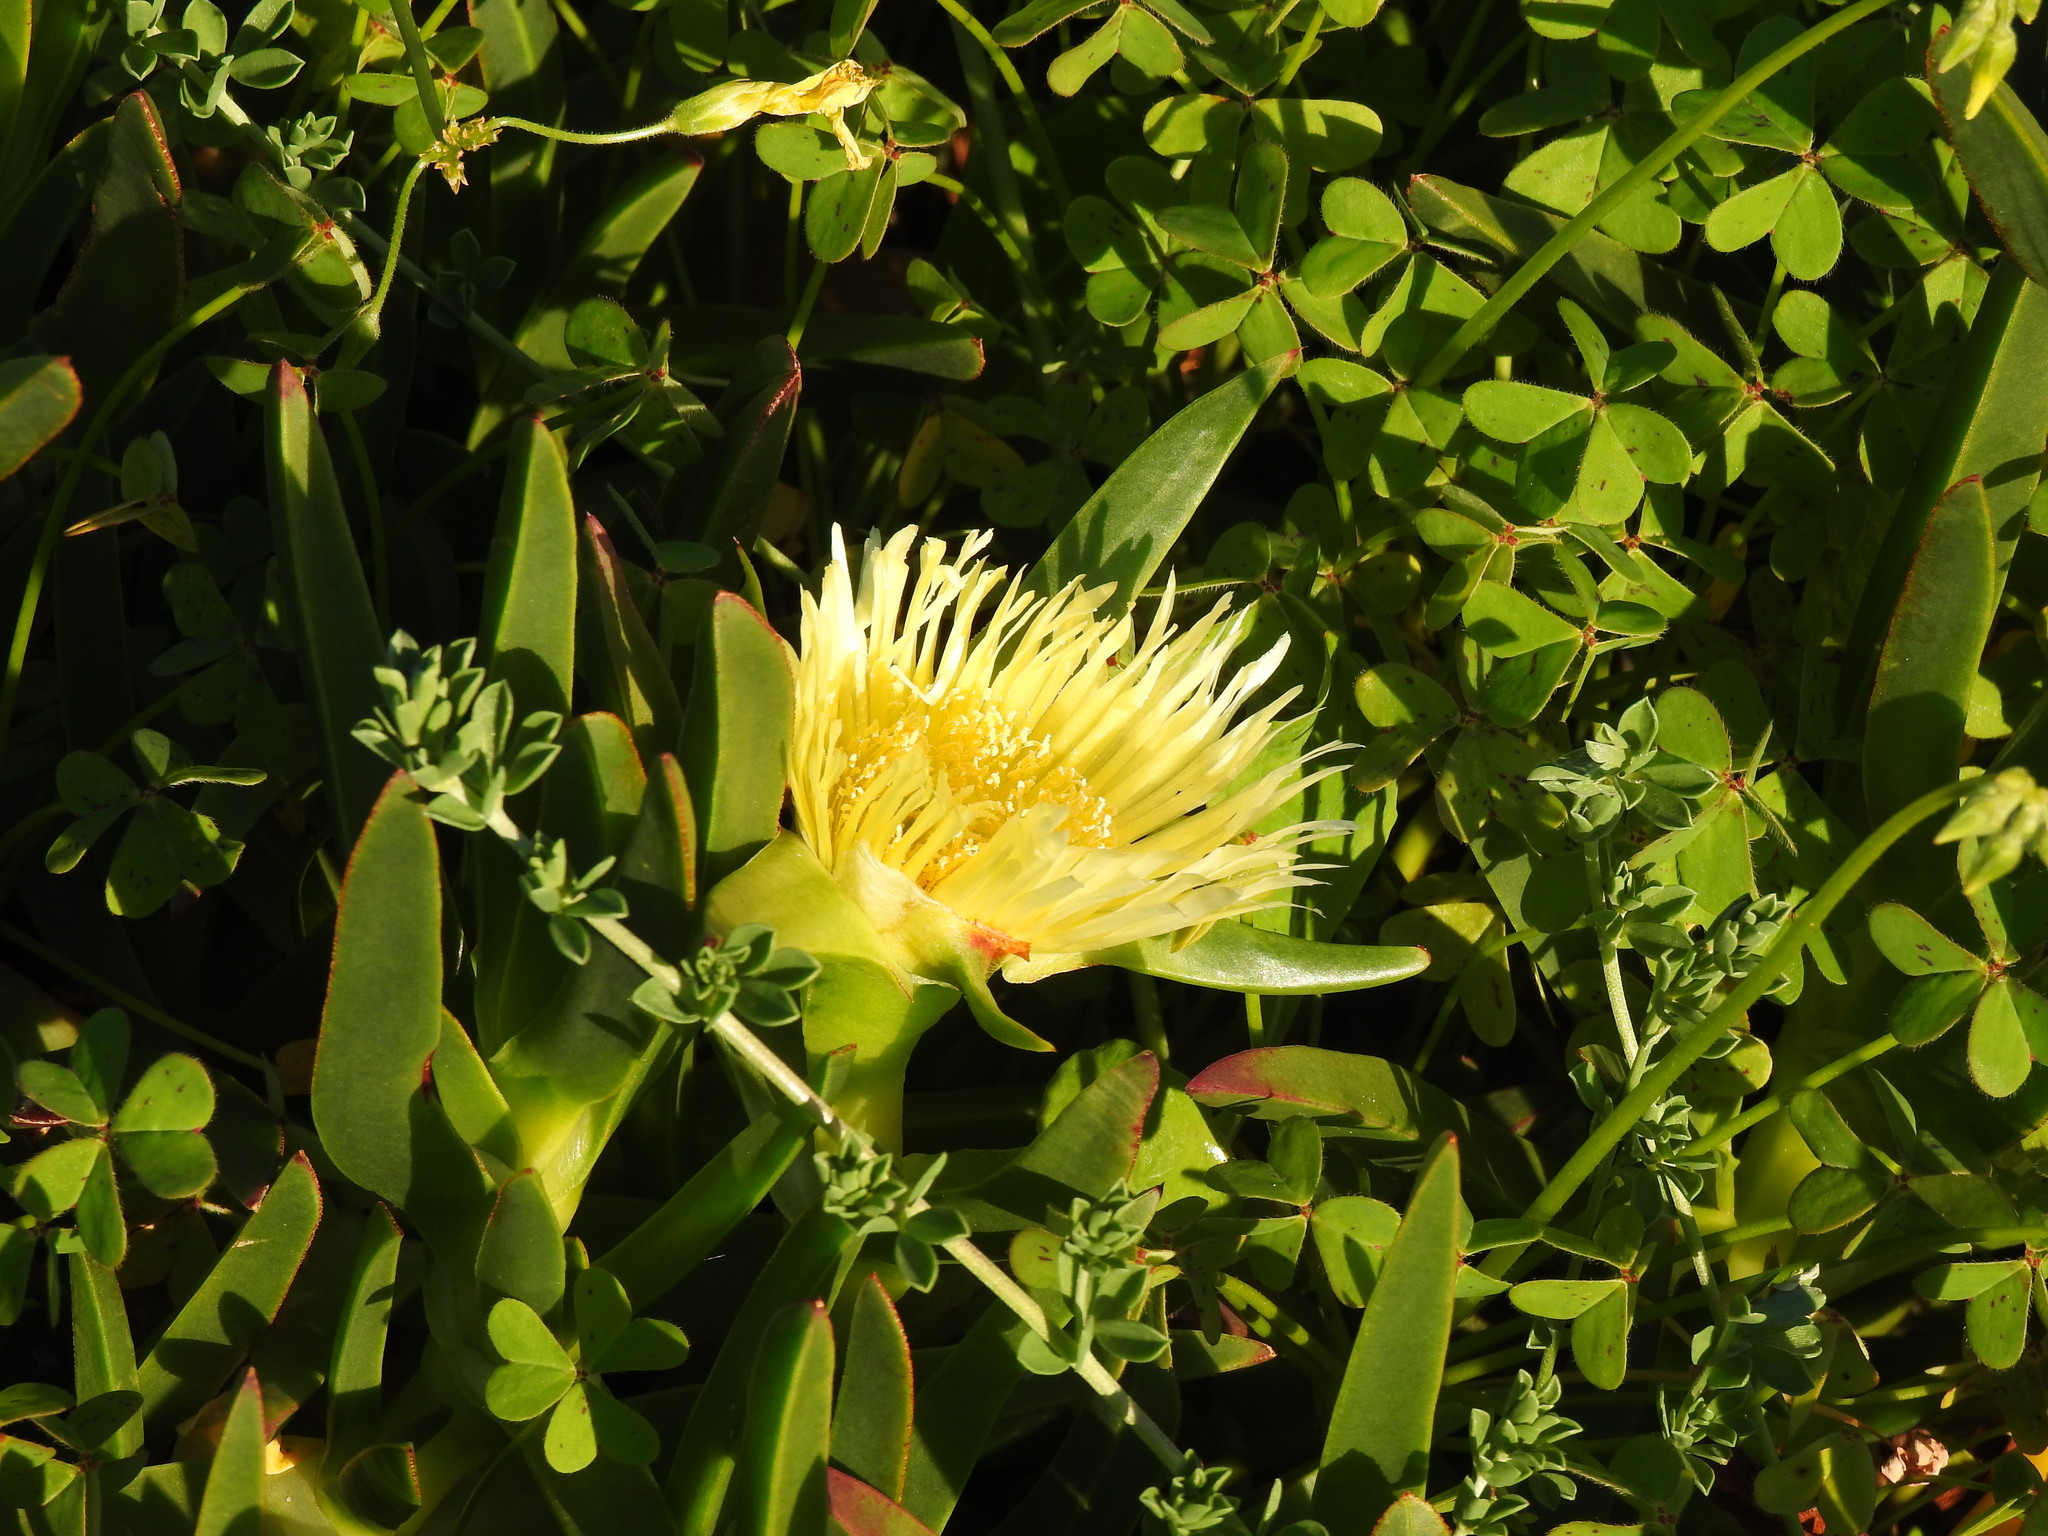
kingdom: Plantae
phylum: Tracheophyta
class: Magnoliopsida
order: Caryophyllales
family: Aizoaceae
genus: Carpobrotus
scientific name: Carpobrotus edulis
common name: Hottentot-fig
